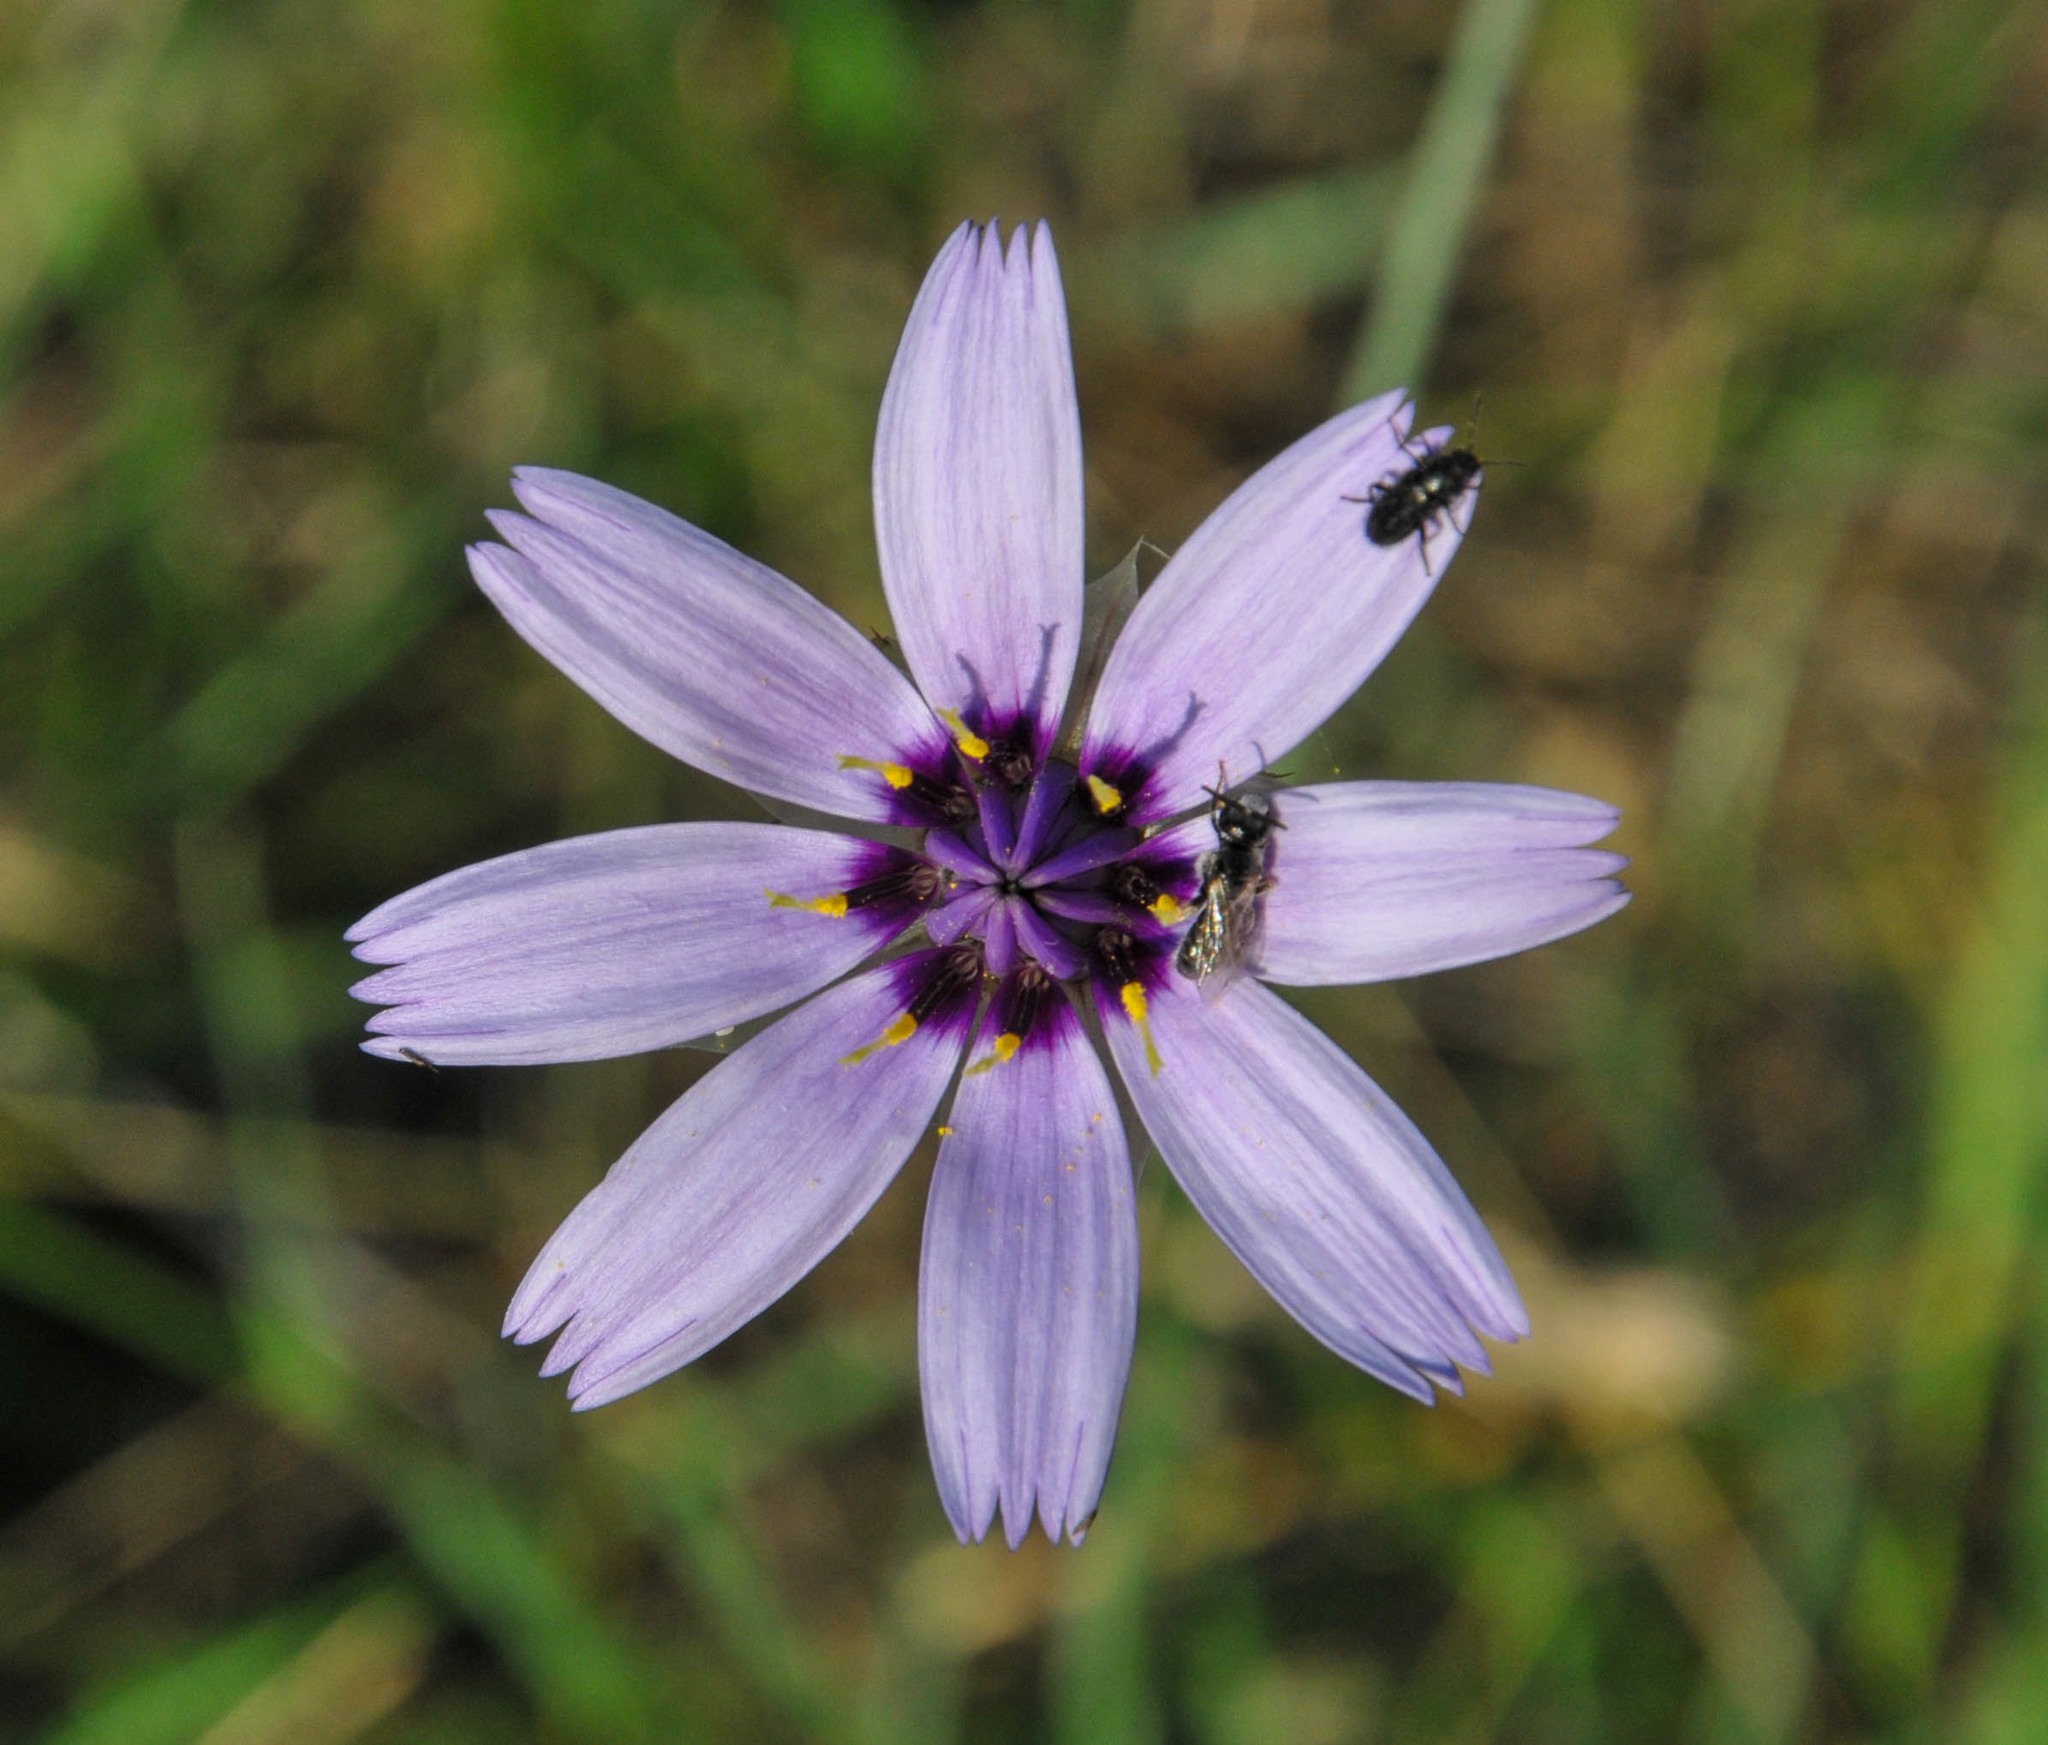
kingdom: Plantae
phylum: Tracheophyta
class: Magnoliopsida
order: Asterales
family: Asteraceae
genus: Catananche
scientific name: Catananche caerulea
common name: Blue cupidone
